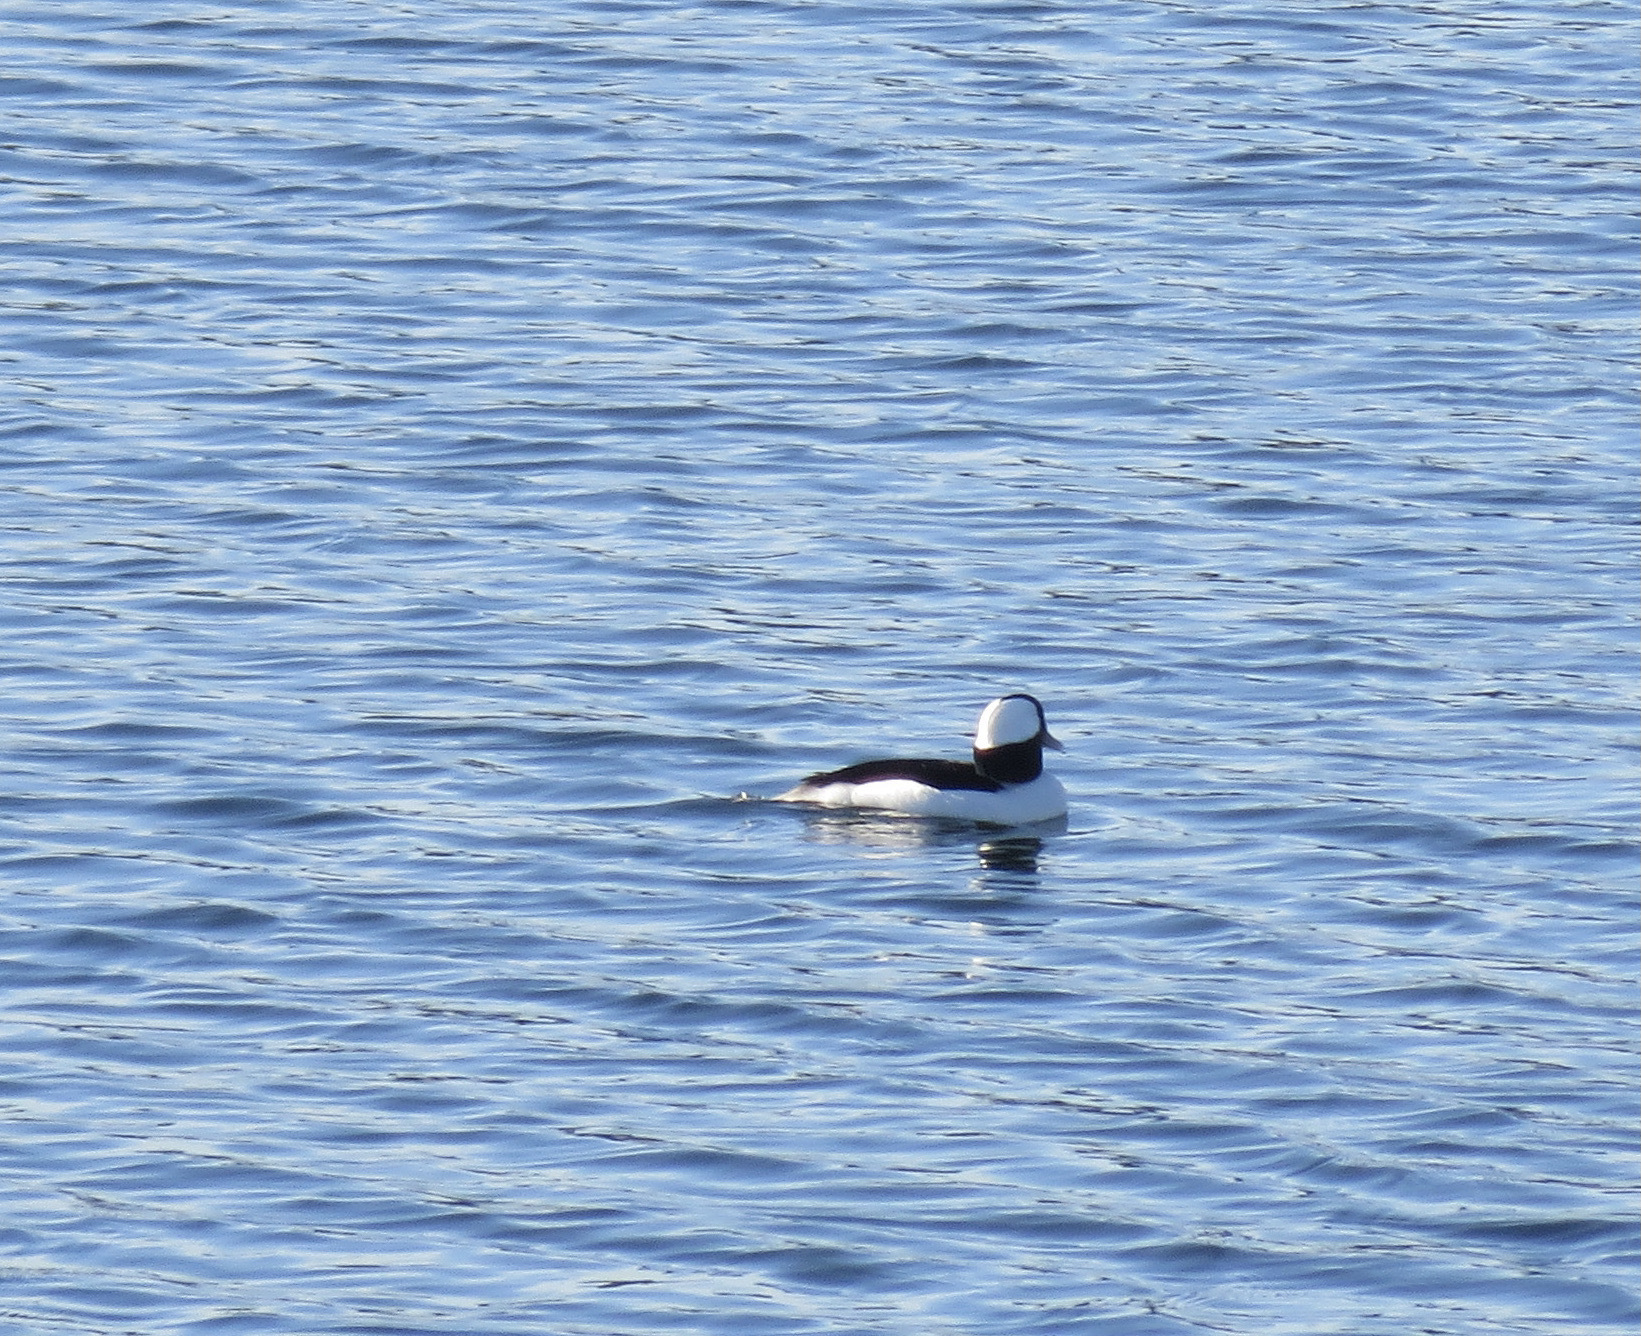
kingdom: Animalia
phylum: Chordata
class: Aves
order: Anseriformes
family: Anatidae
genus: Bucephala
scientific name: Bucephala albeola
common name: Bufflehead
